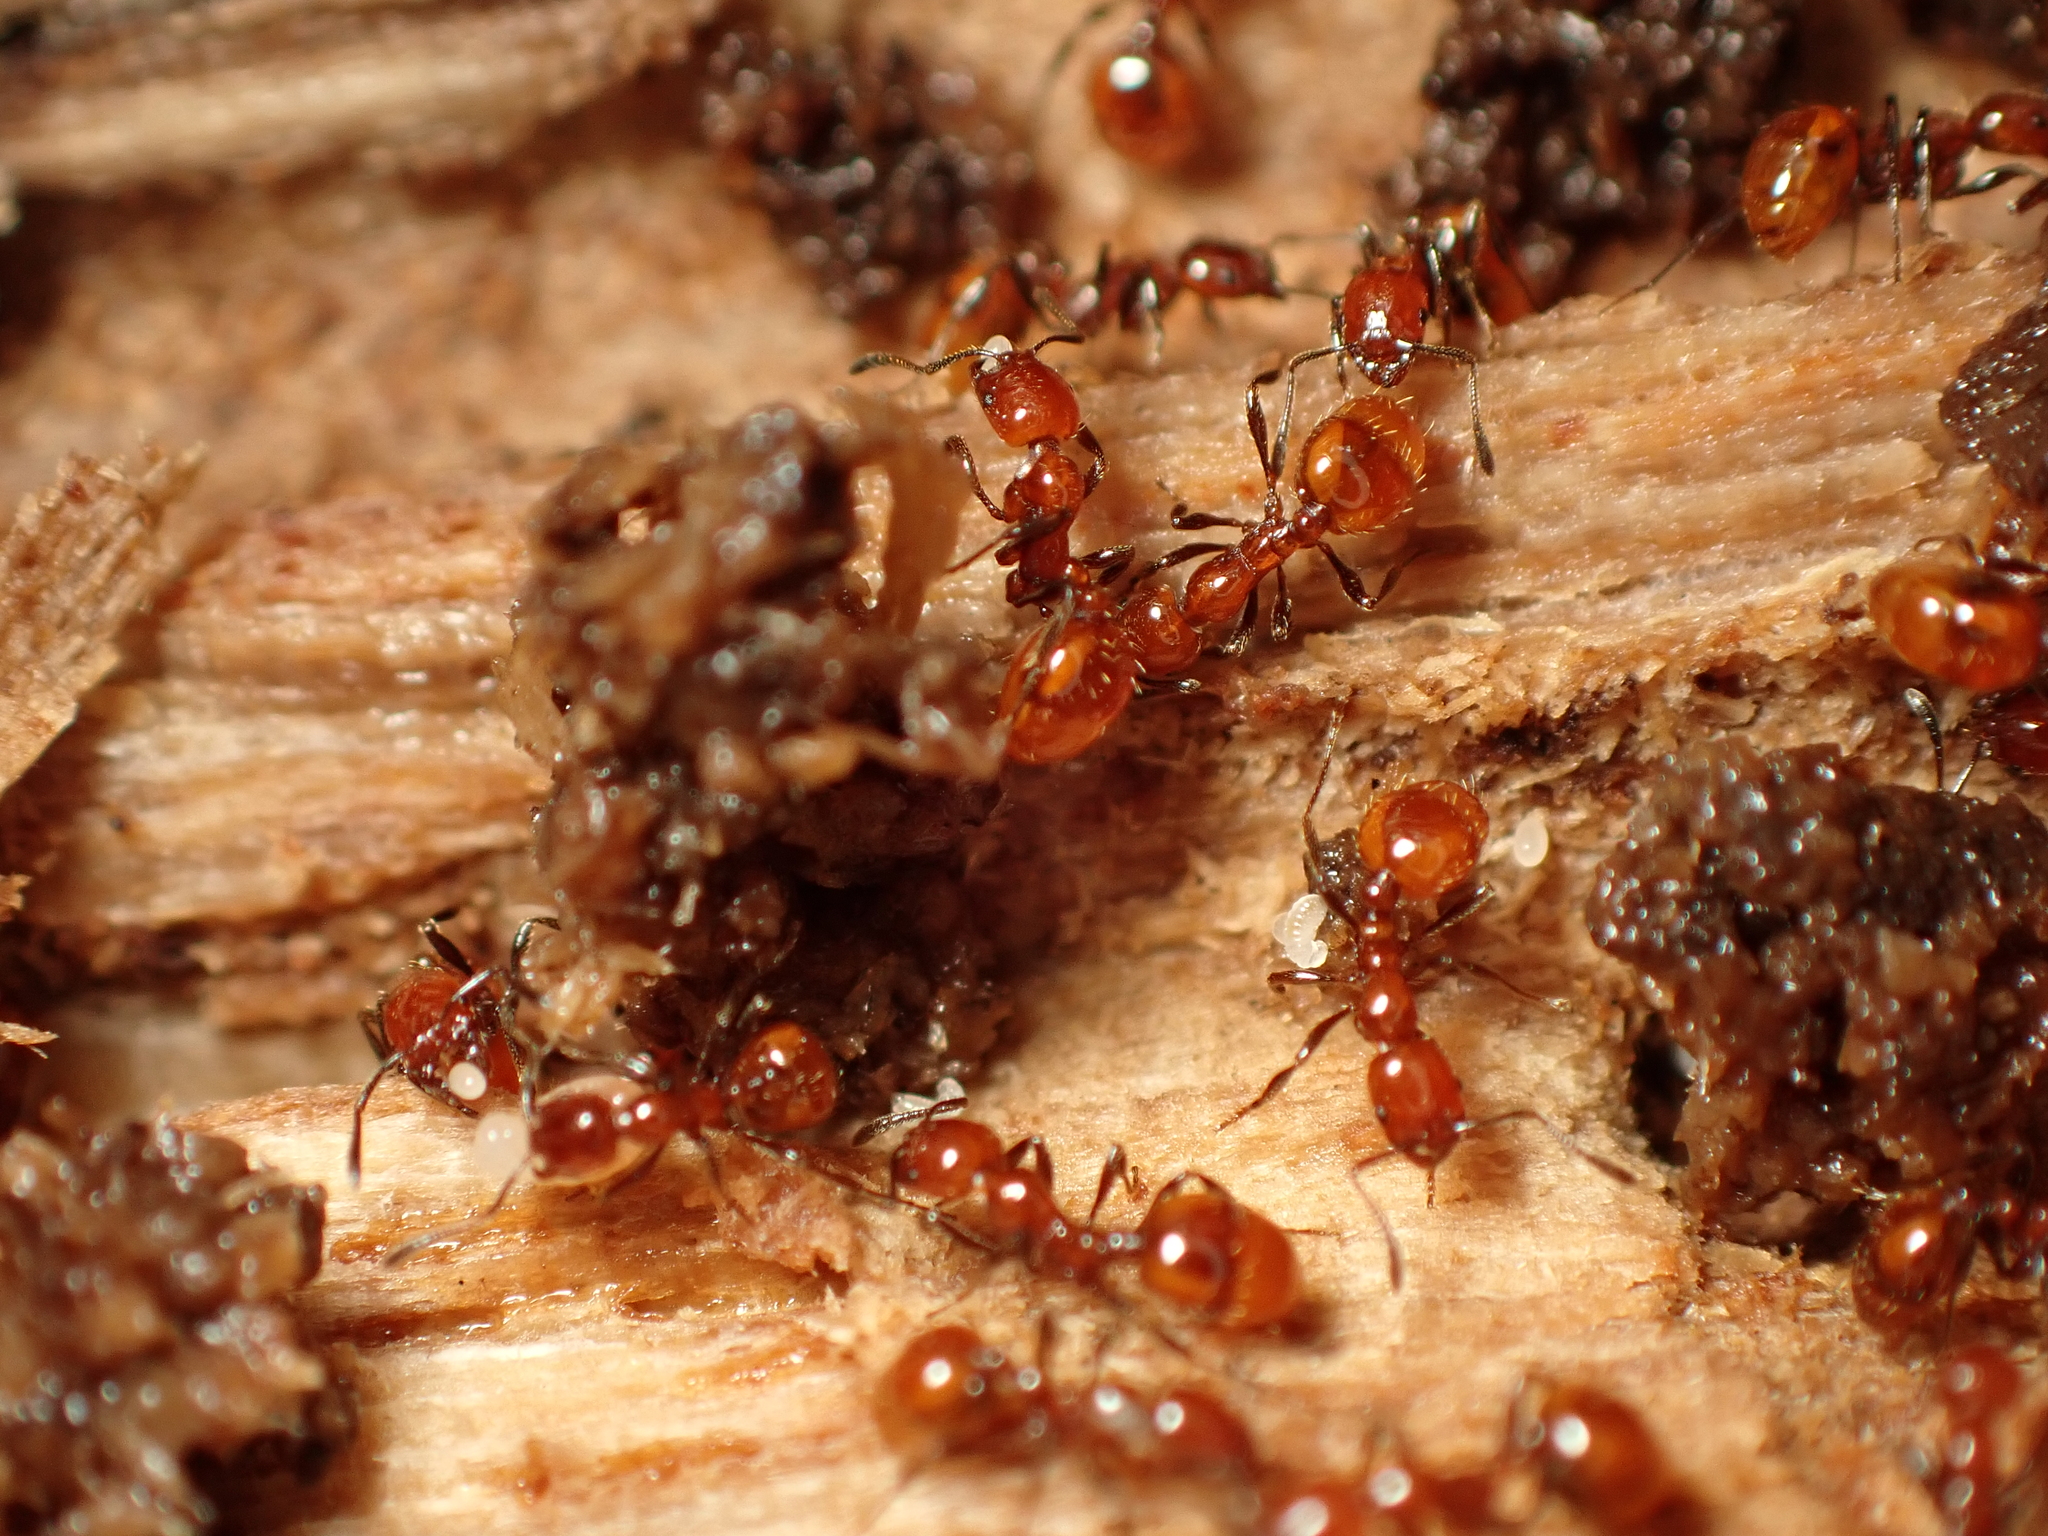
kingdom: Animalia
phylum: Arthropoda
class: Insecta
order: Hymenoptera
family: Formicidae
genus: Huberia
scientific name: Huberia striata
